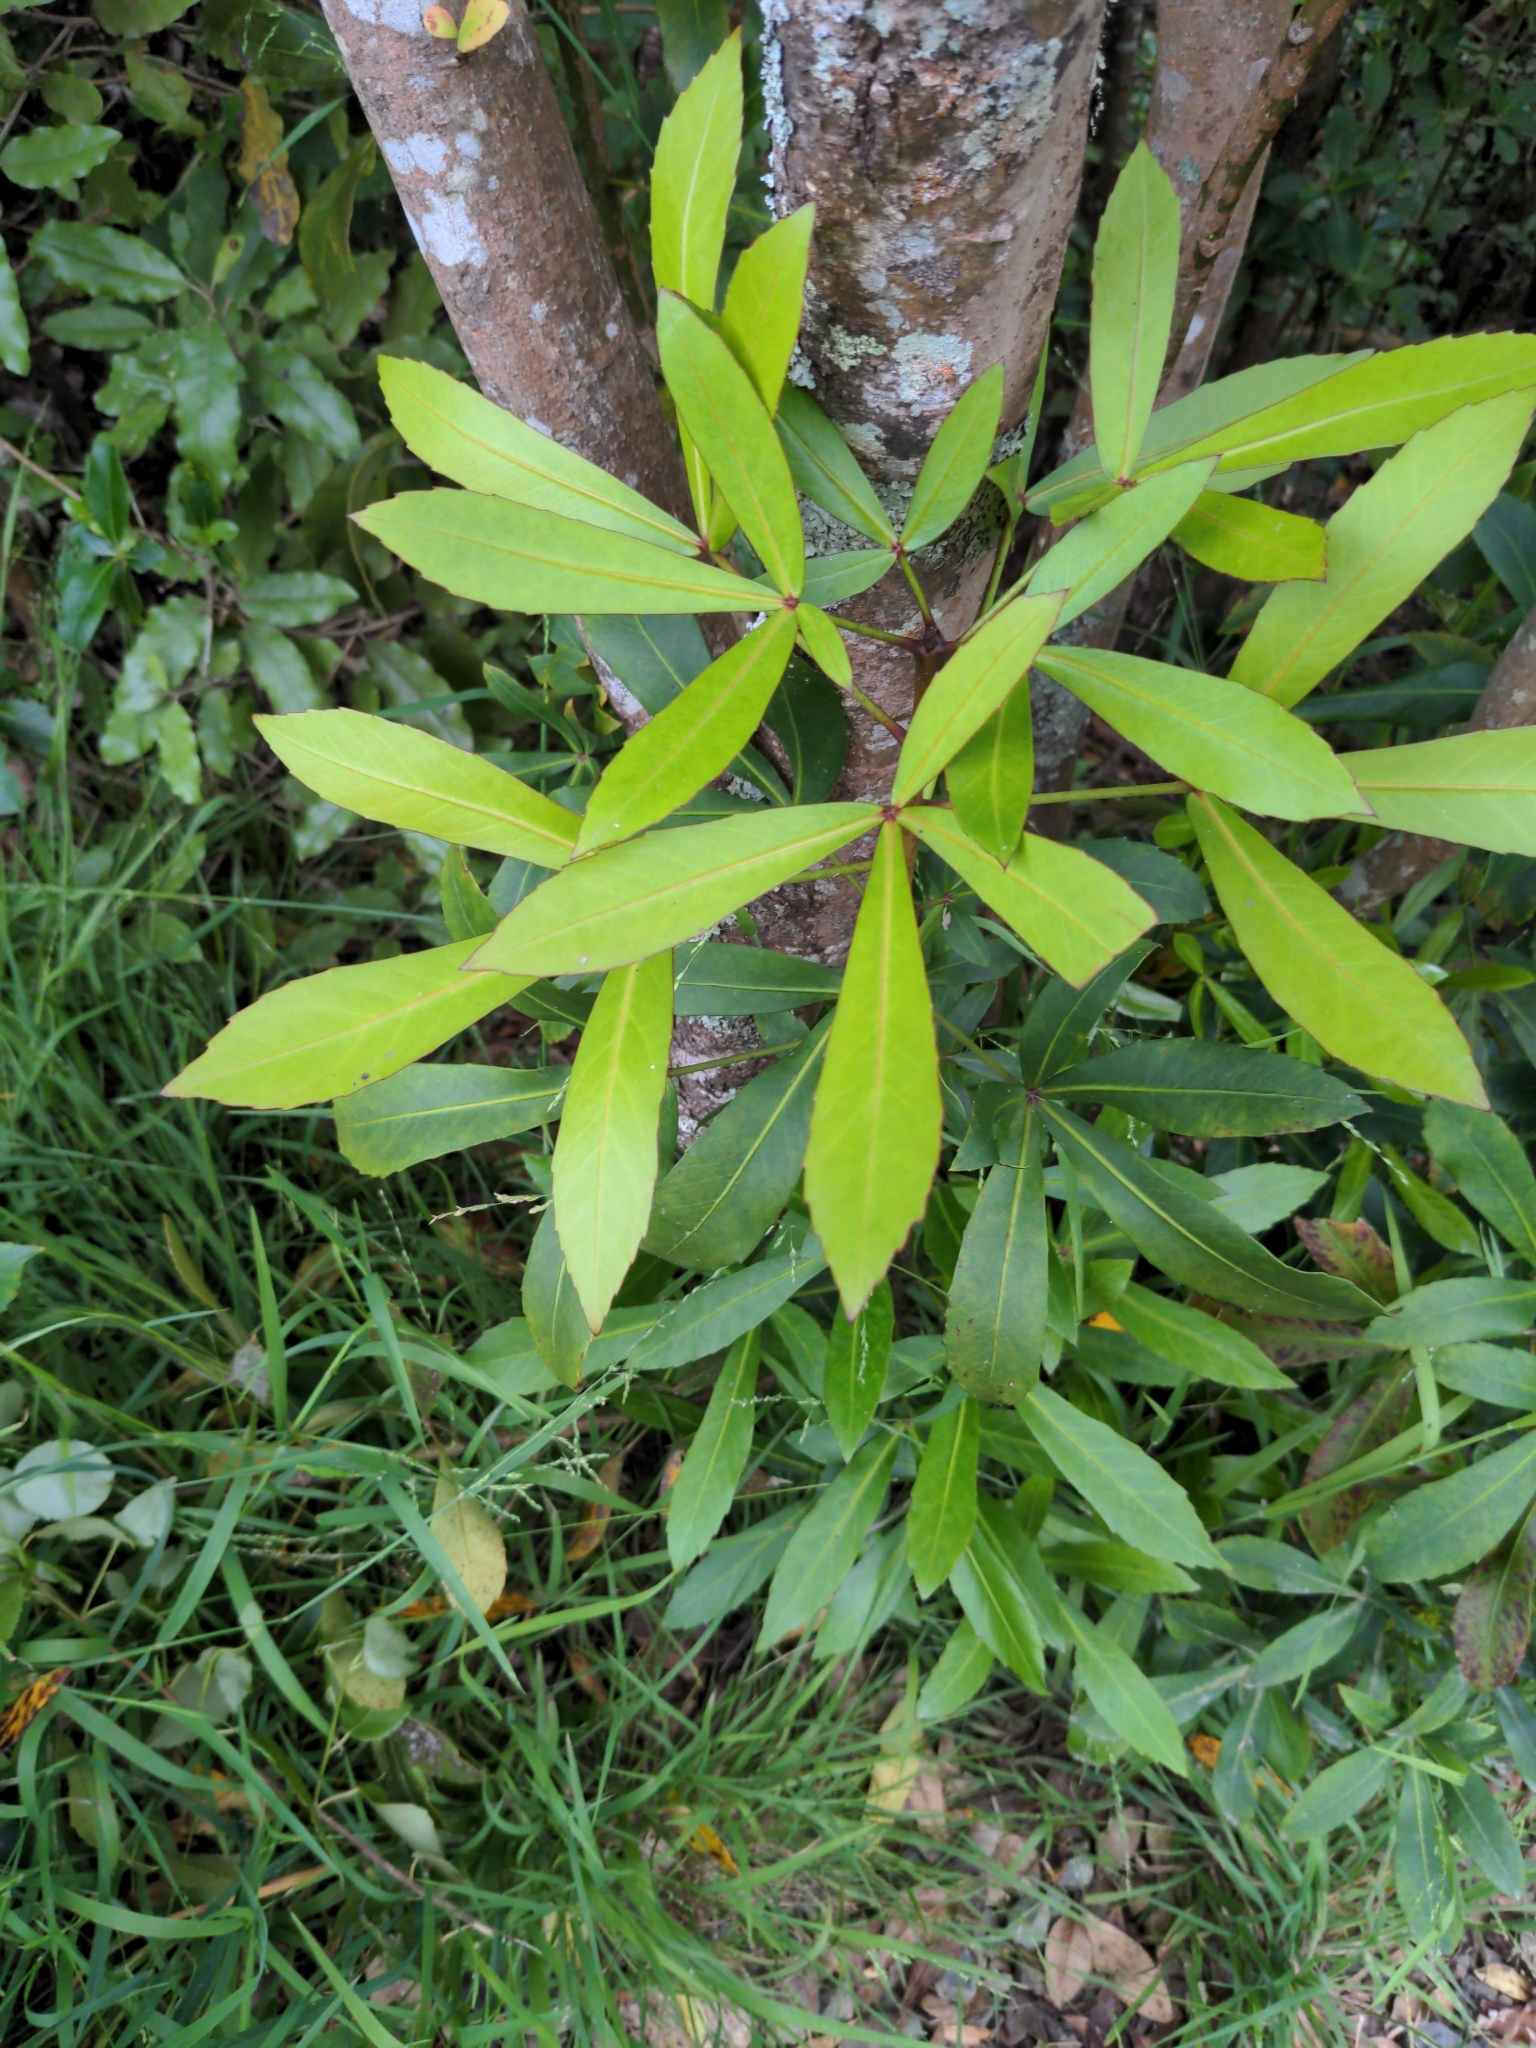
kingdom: Plantae
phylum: Tracheophyta
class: Magnoliopsida
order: Apiales
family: Araliaceae
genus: Pseudopanax
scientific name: Pseudopanax lessonii
